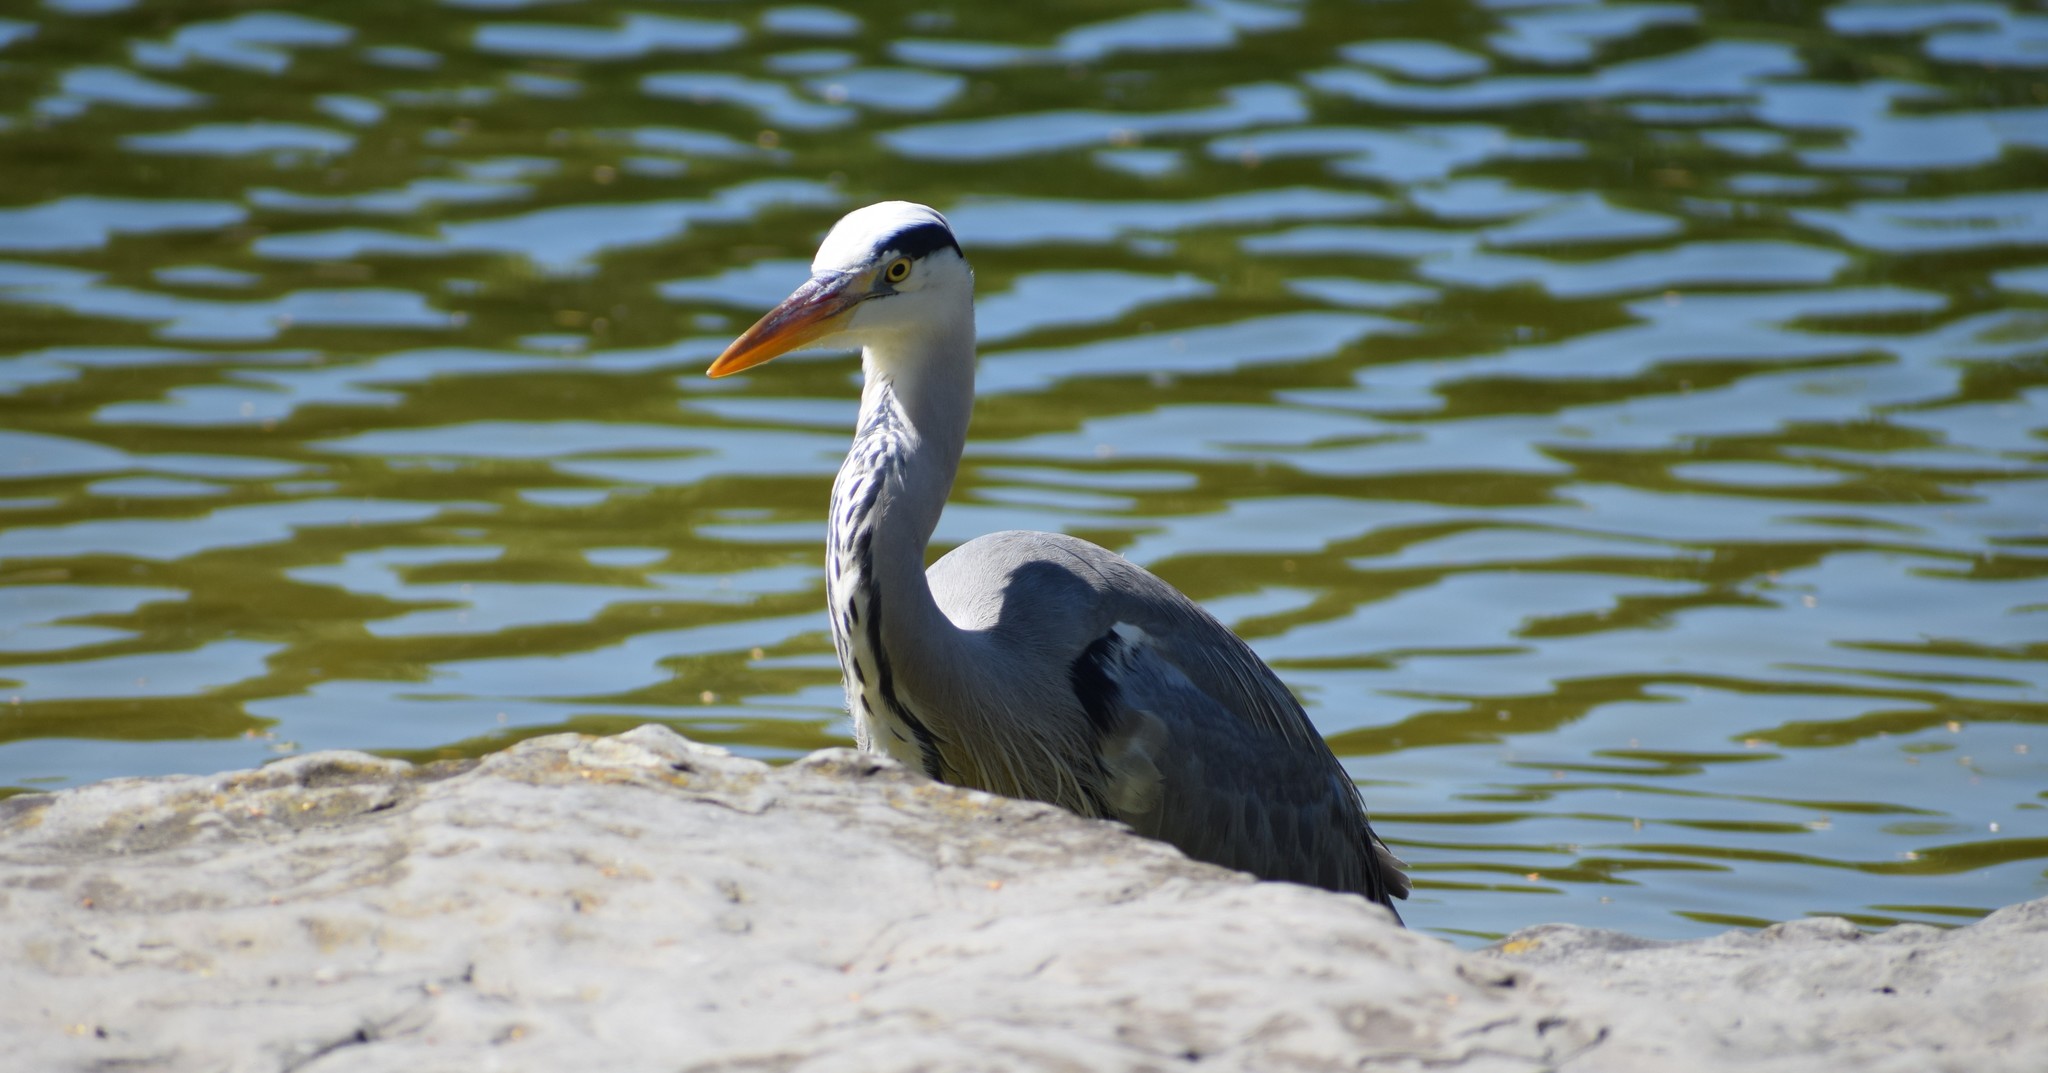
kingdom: Animalia
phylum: Chordata
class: Aves
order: Pelecaniformes
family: Ardeidae
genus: Ardea
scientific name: Ardea cinerea
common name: Grey heron
